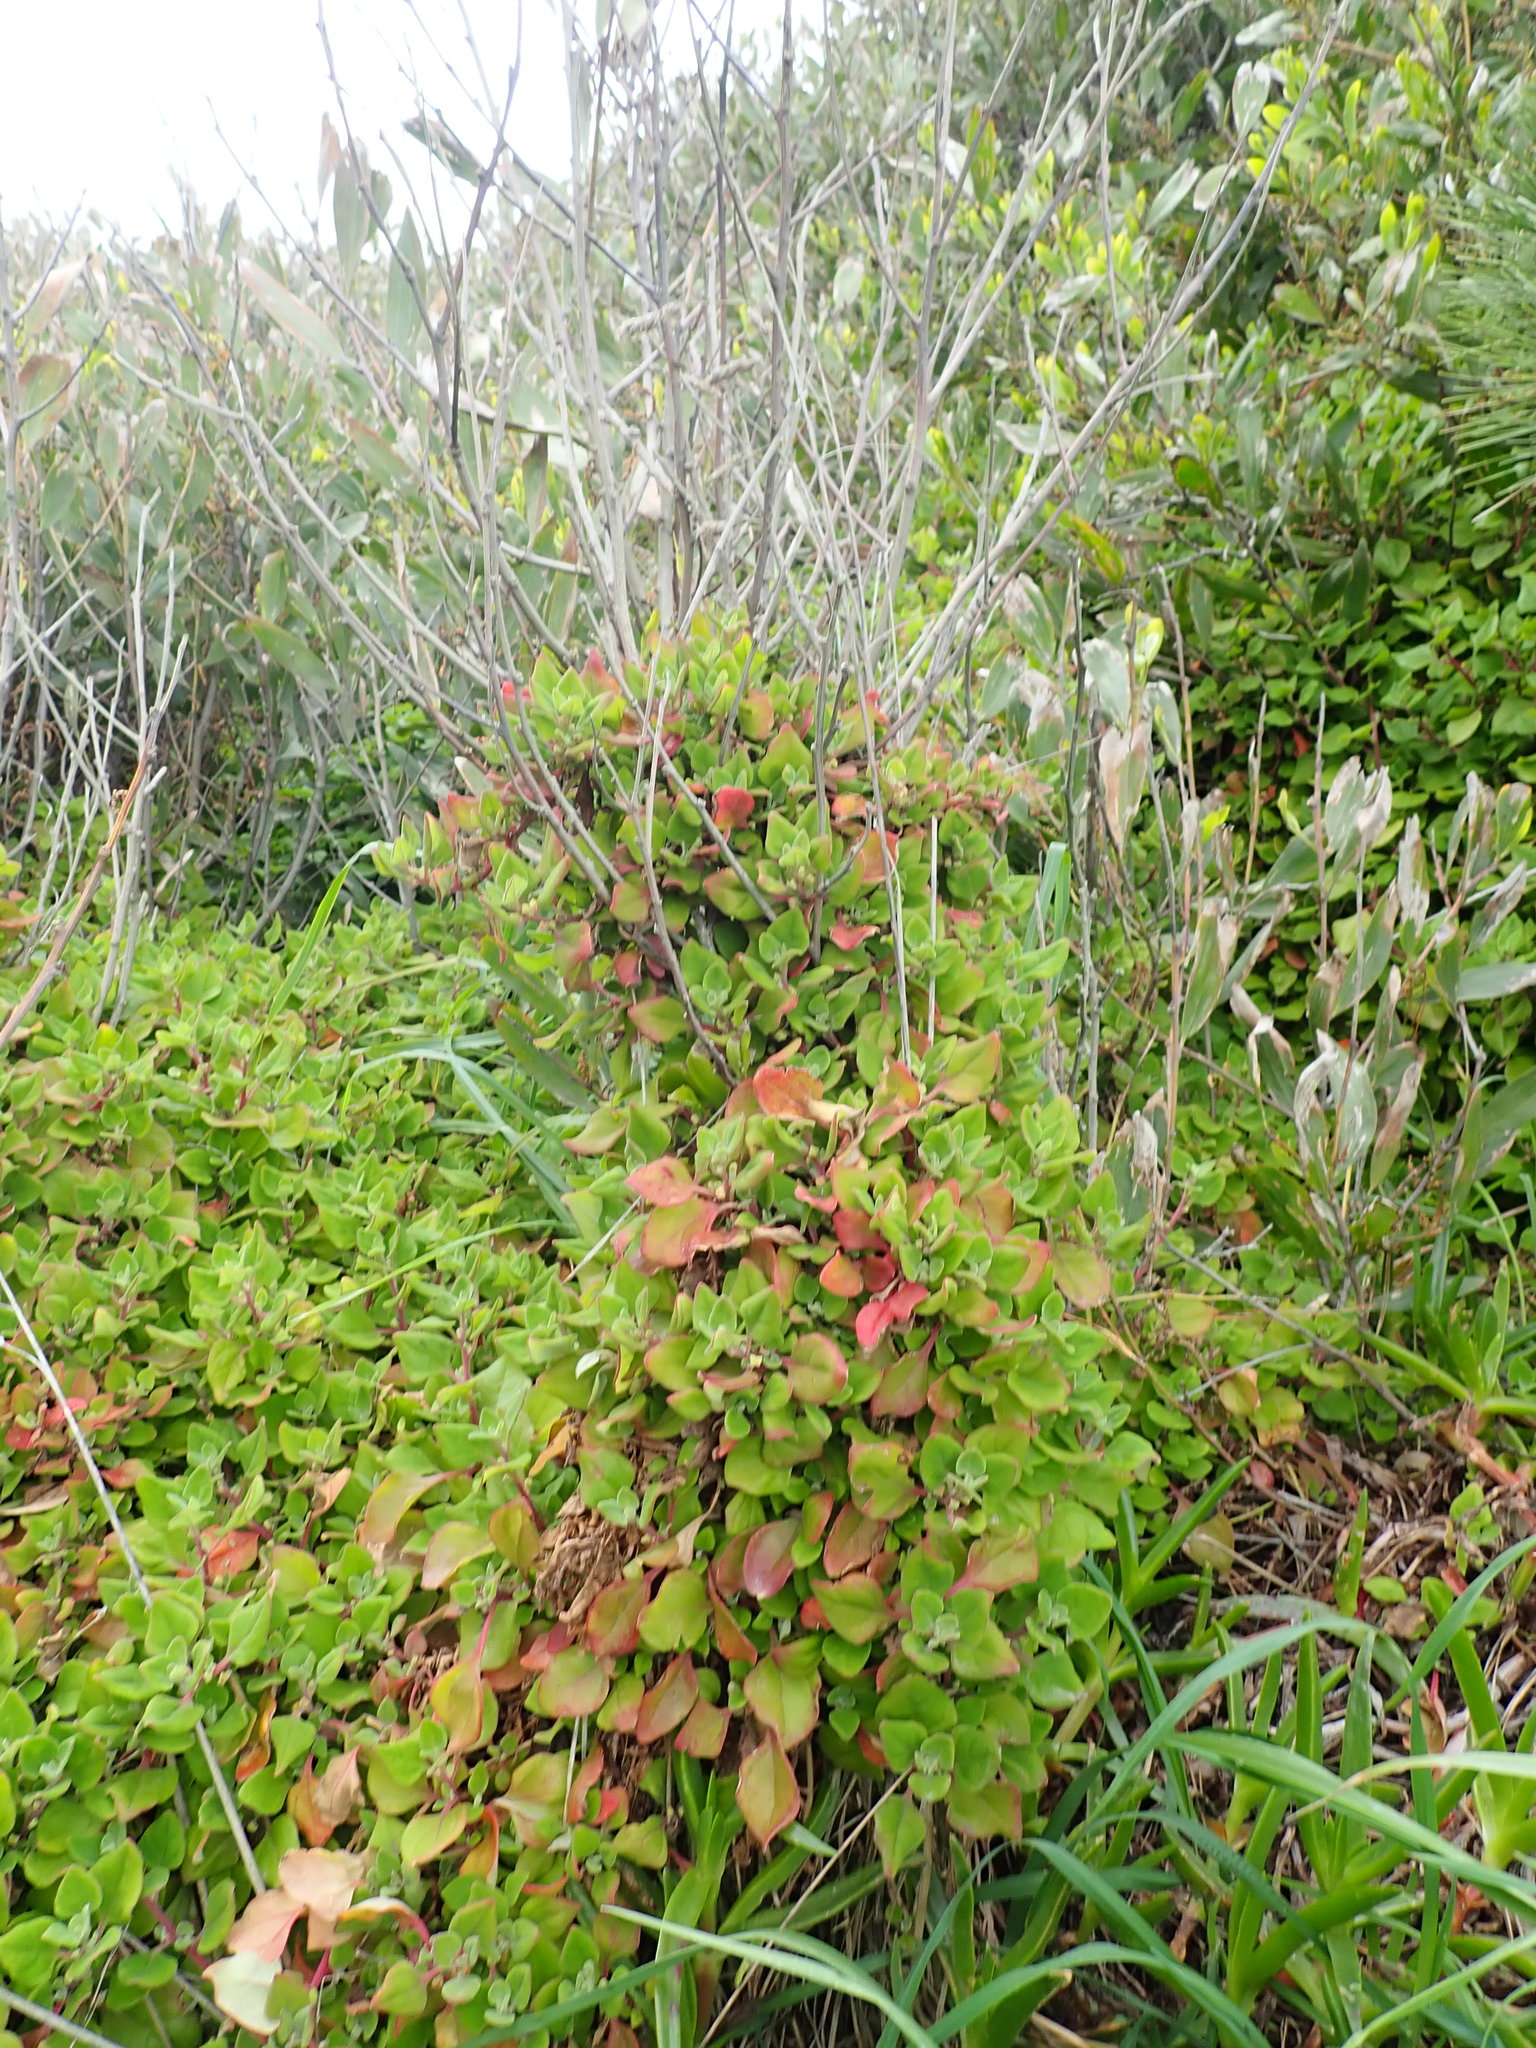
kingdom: Plantae
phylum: Tracheophyta
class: Magnoliopsida
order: Caryophyllales
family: Aizoaceae
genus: Tetragonia
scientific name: Tetragonia implexicoma
